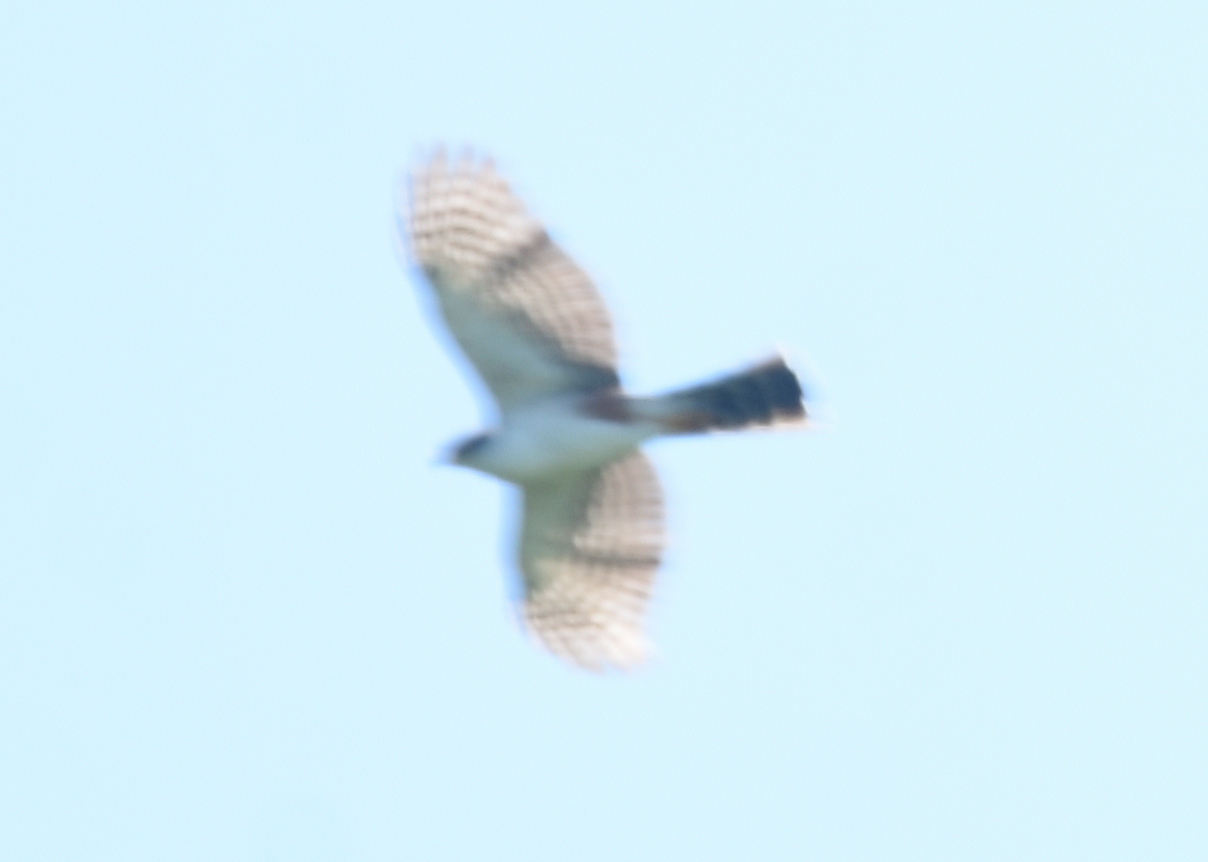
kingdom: Animalia
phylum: Chordata
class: Aves
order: Accipitriformes
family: Accipitridae
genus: Accipiter
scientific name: Accipiter bicolor
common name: Bicolored hawk
